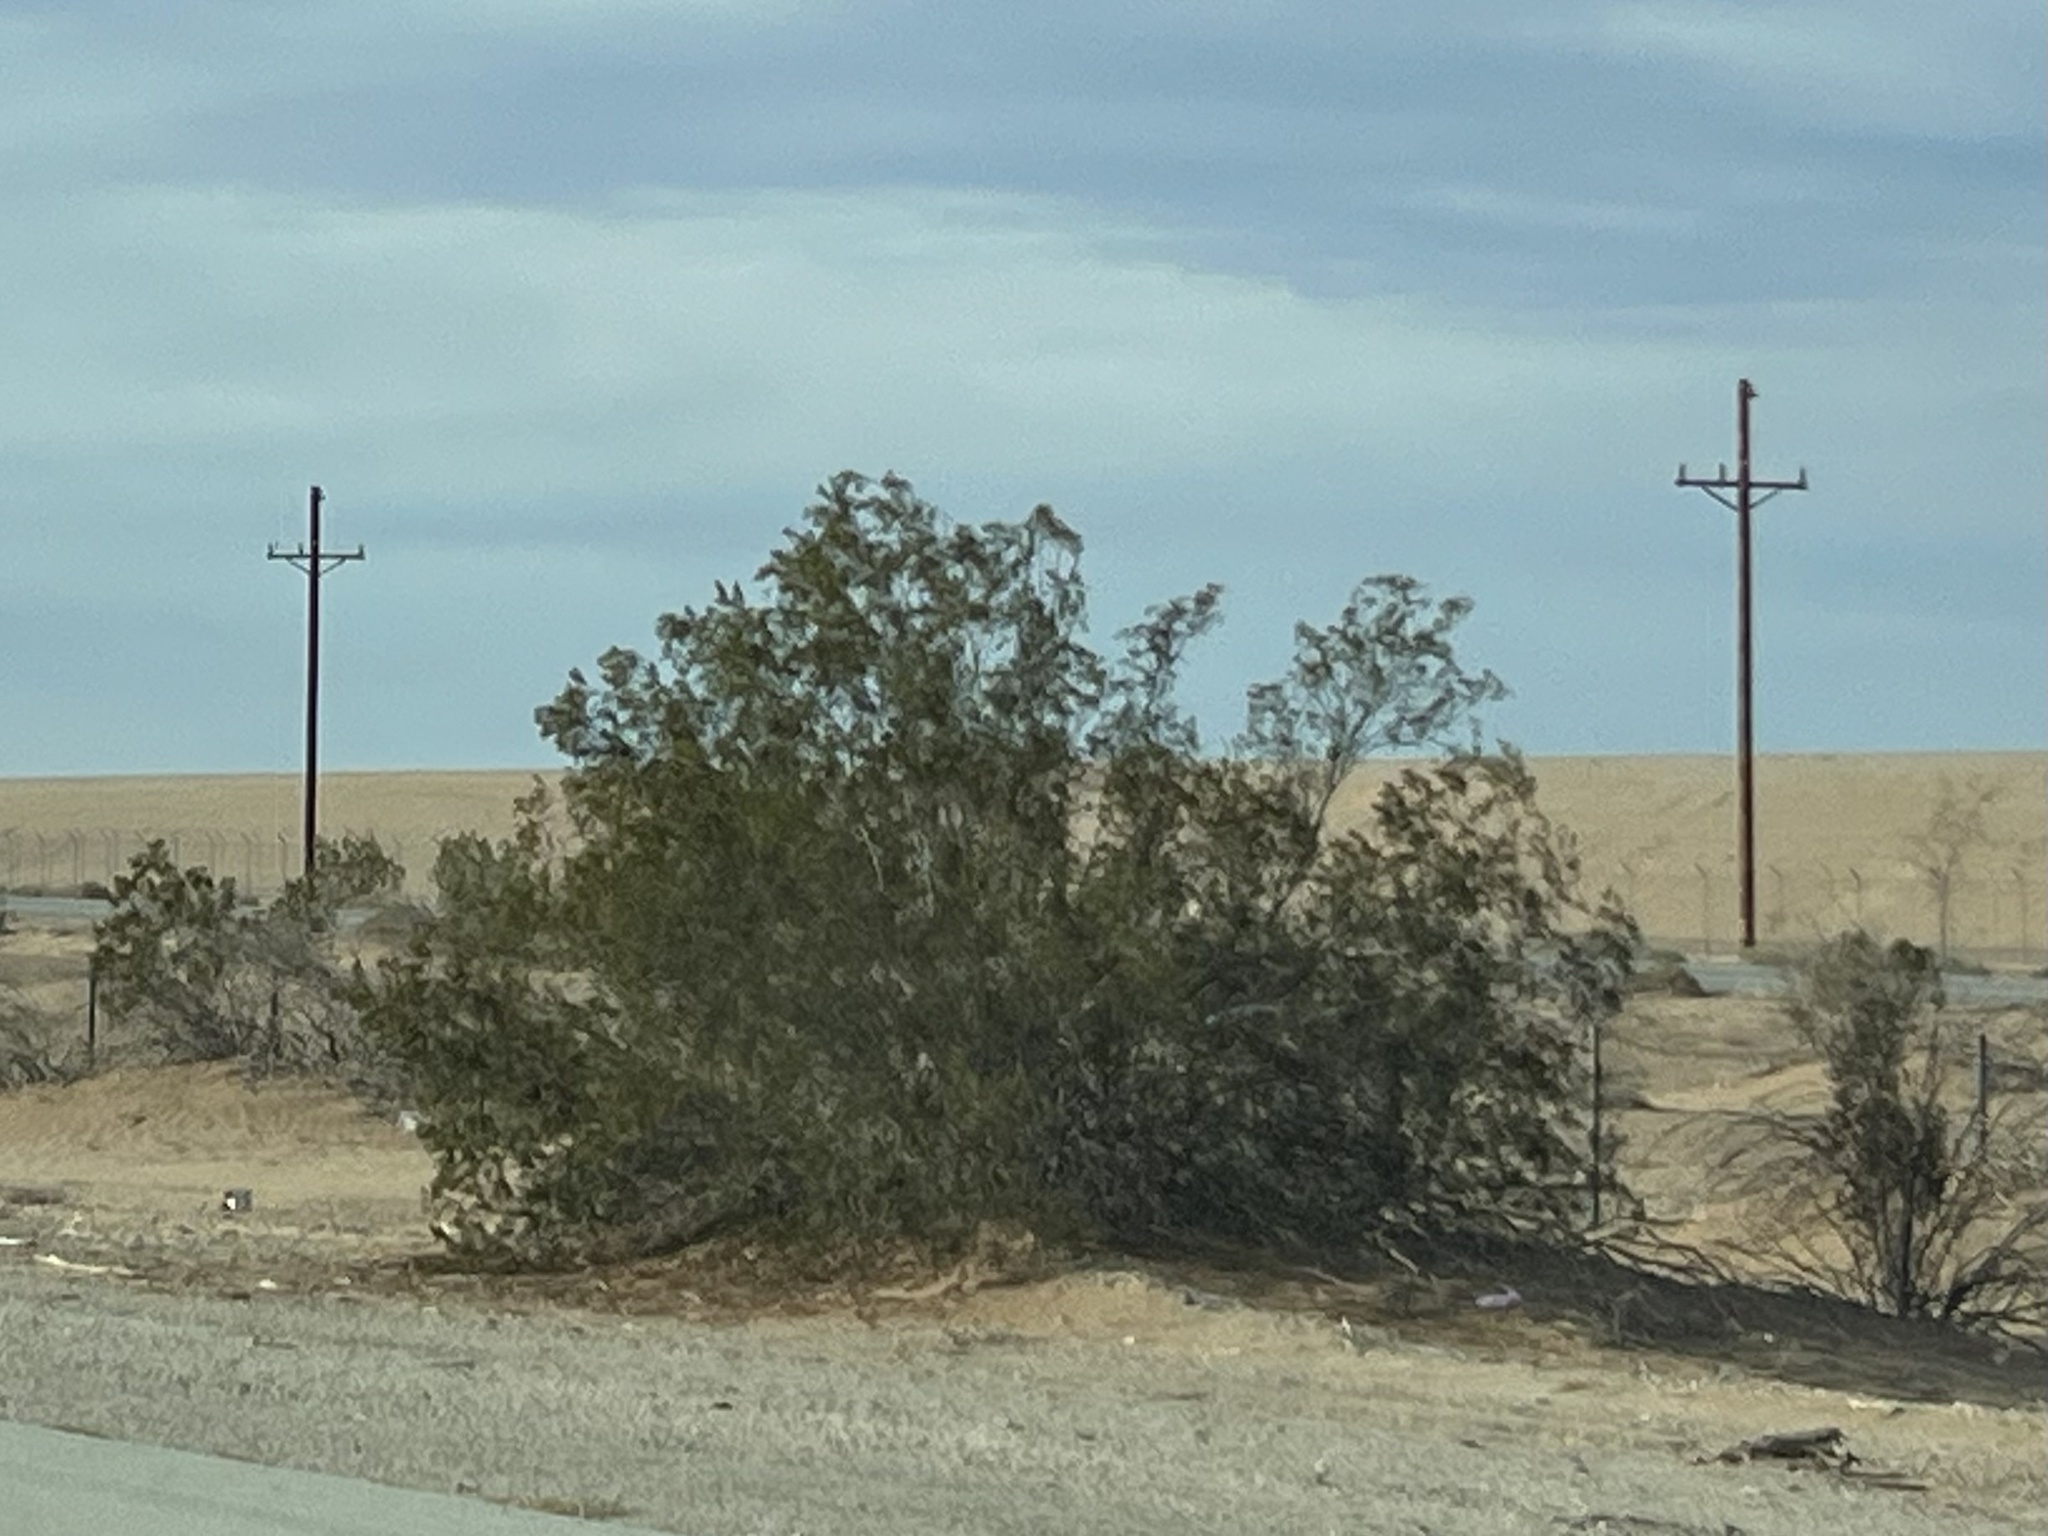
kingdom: Plantae
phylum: Tracheophyta
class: Magnoliopsida
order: Zygophyllales
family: Zygophyllaceae
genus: Larrea
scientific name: Larrea tridentata
